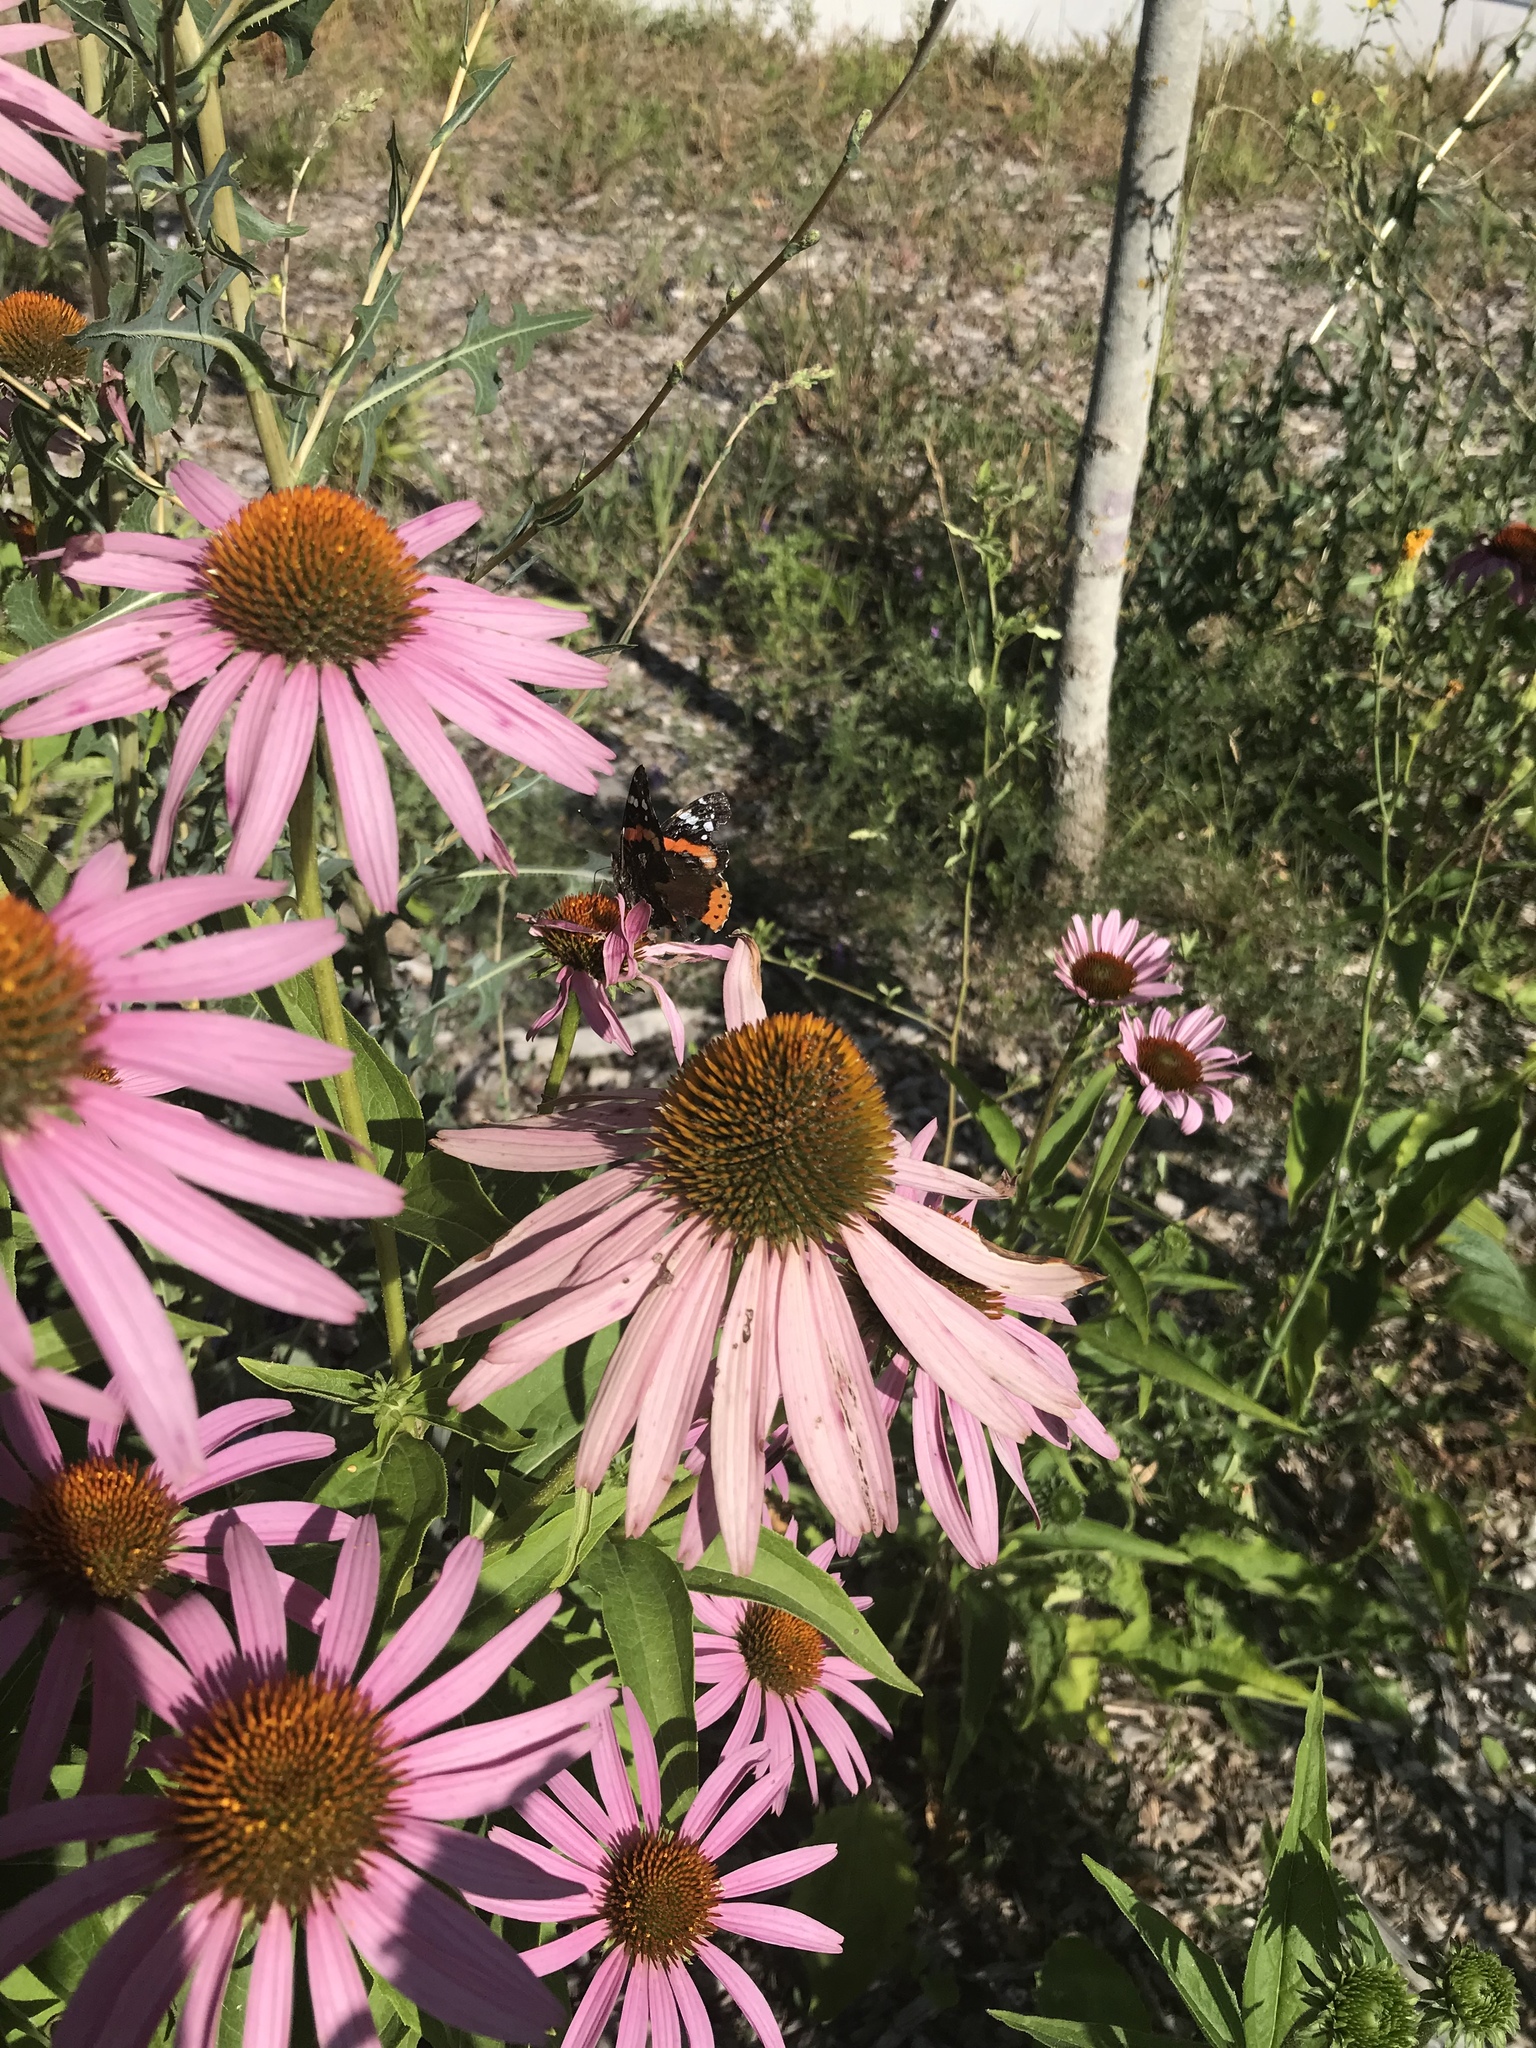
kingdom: Animalia
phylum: Arthropoda
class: Insecta
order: Lepidoptera
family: Nymphalidae
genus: Vanessa
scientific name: Vanessa atalanta
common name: Red admiral
